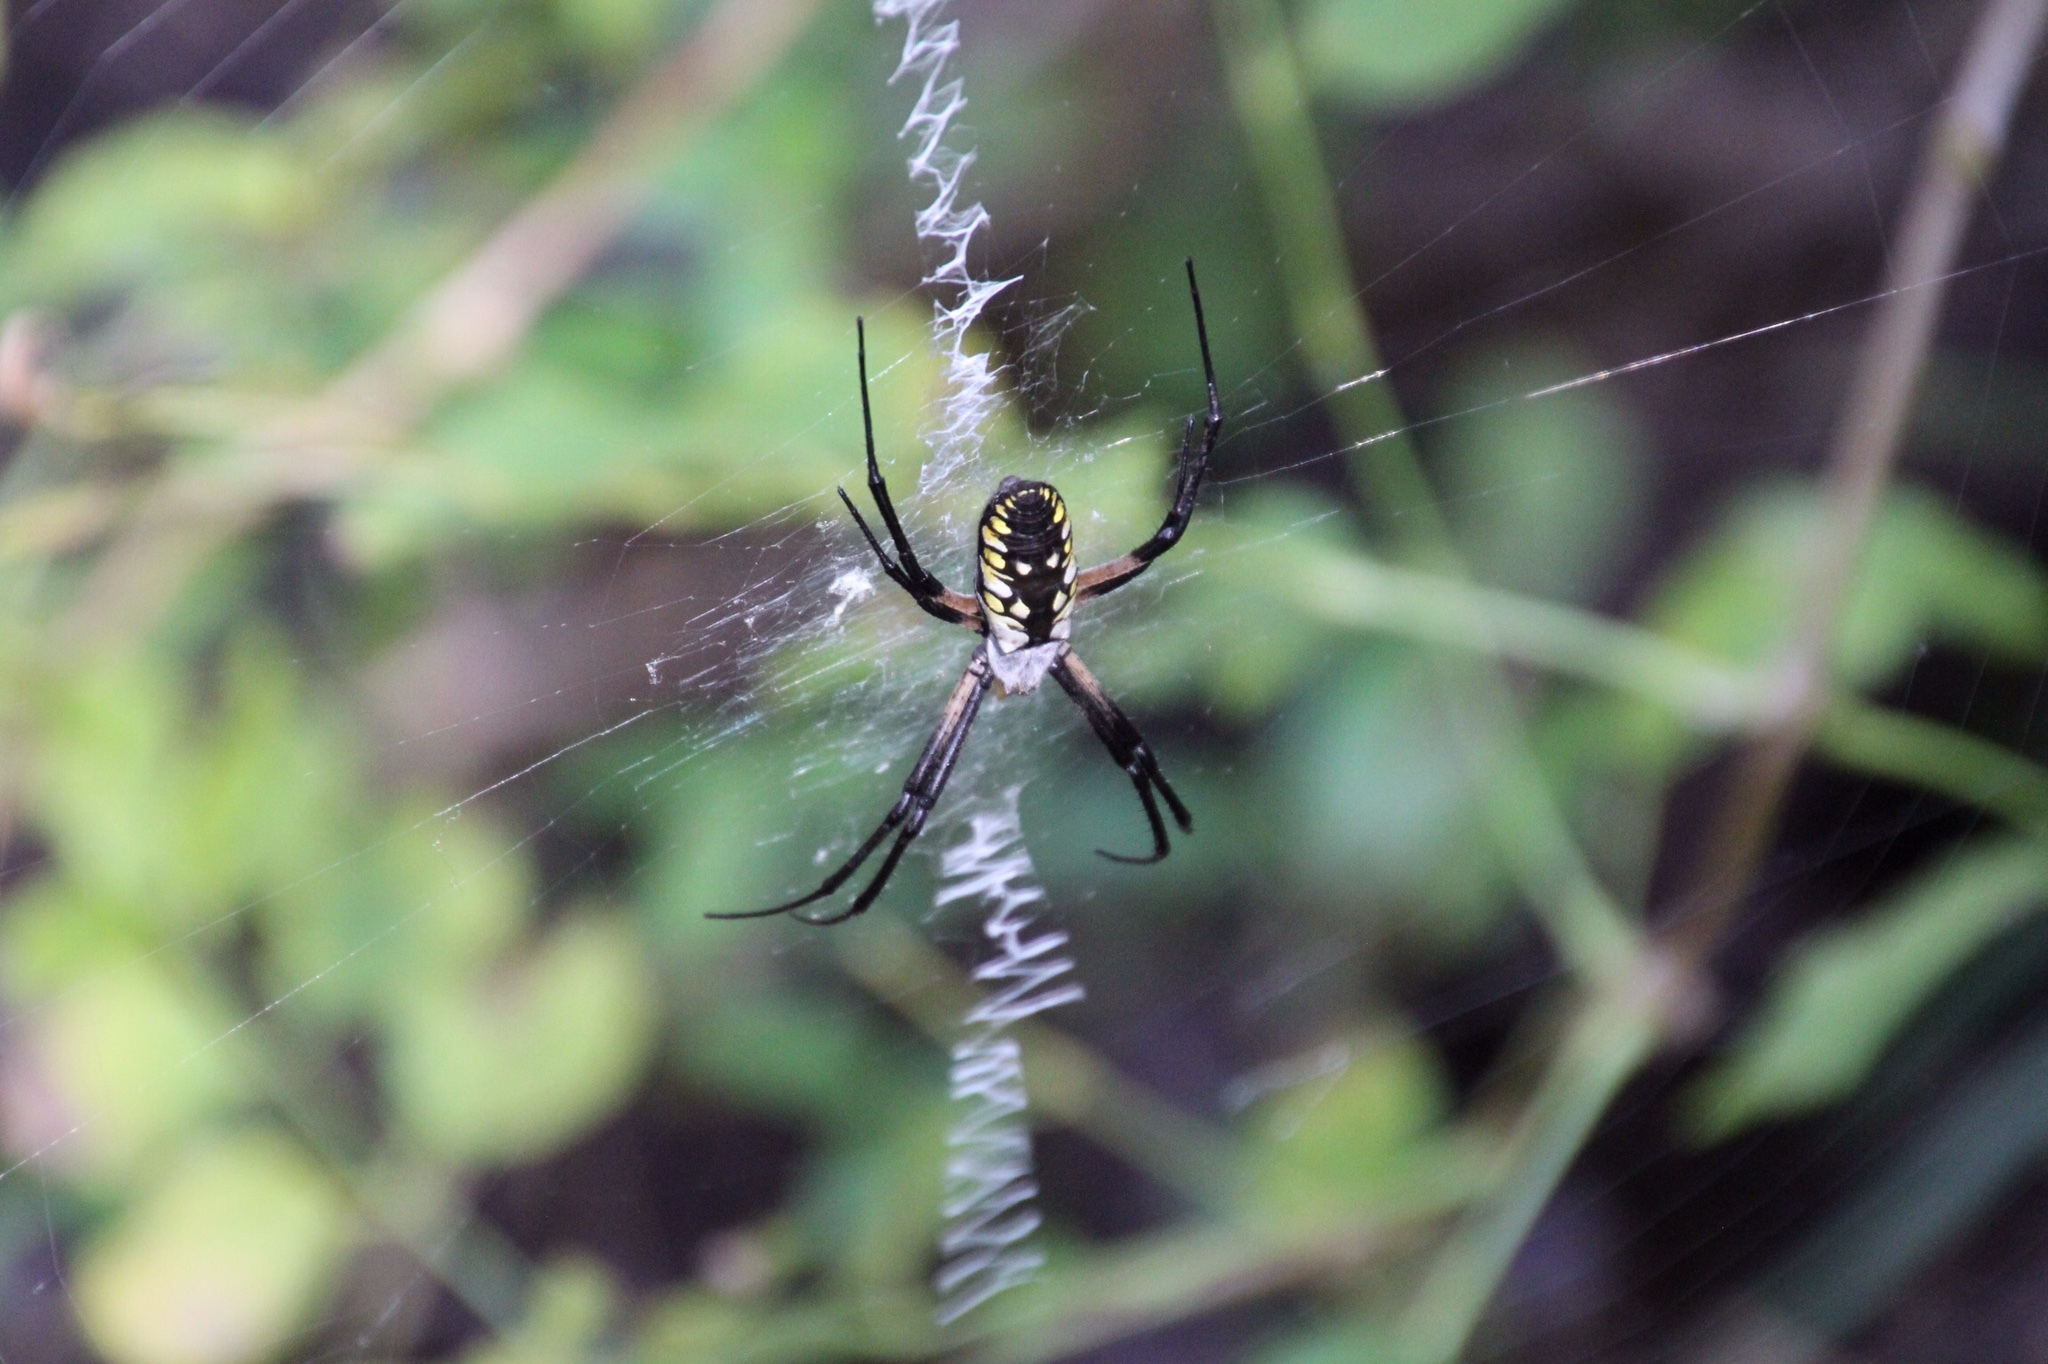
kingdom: Animalia
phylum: Arthropoda
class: Arachnida
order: Araneae
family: Araneidae
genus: Argiope
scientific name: Argiope aurantia
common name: Orb weavers
